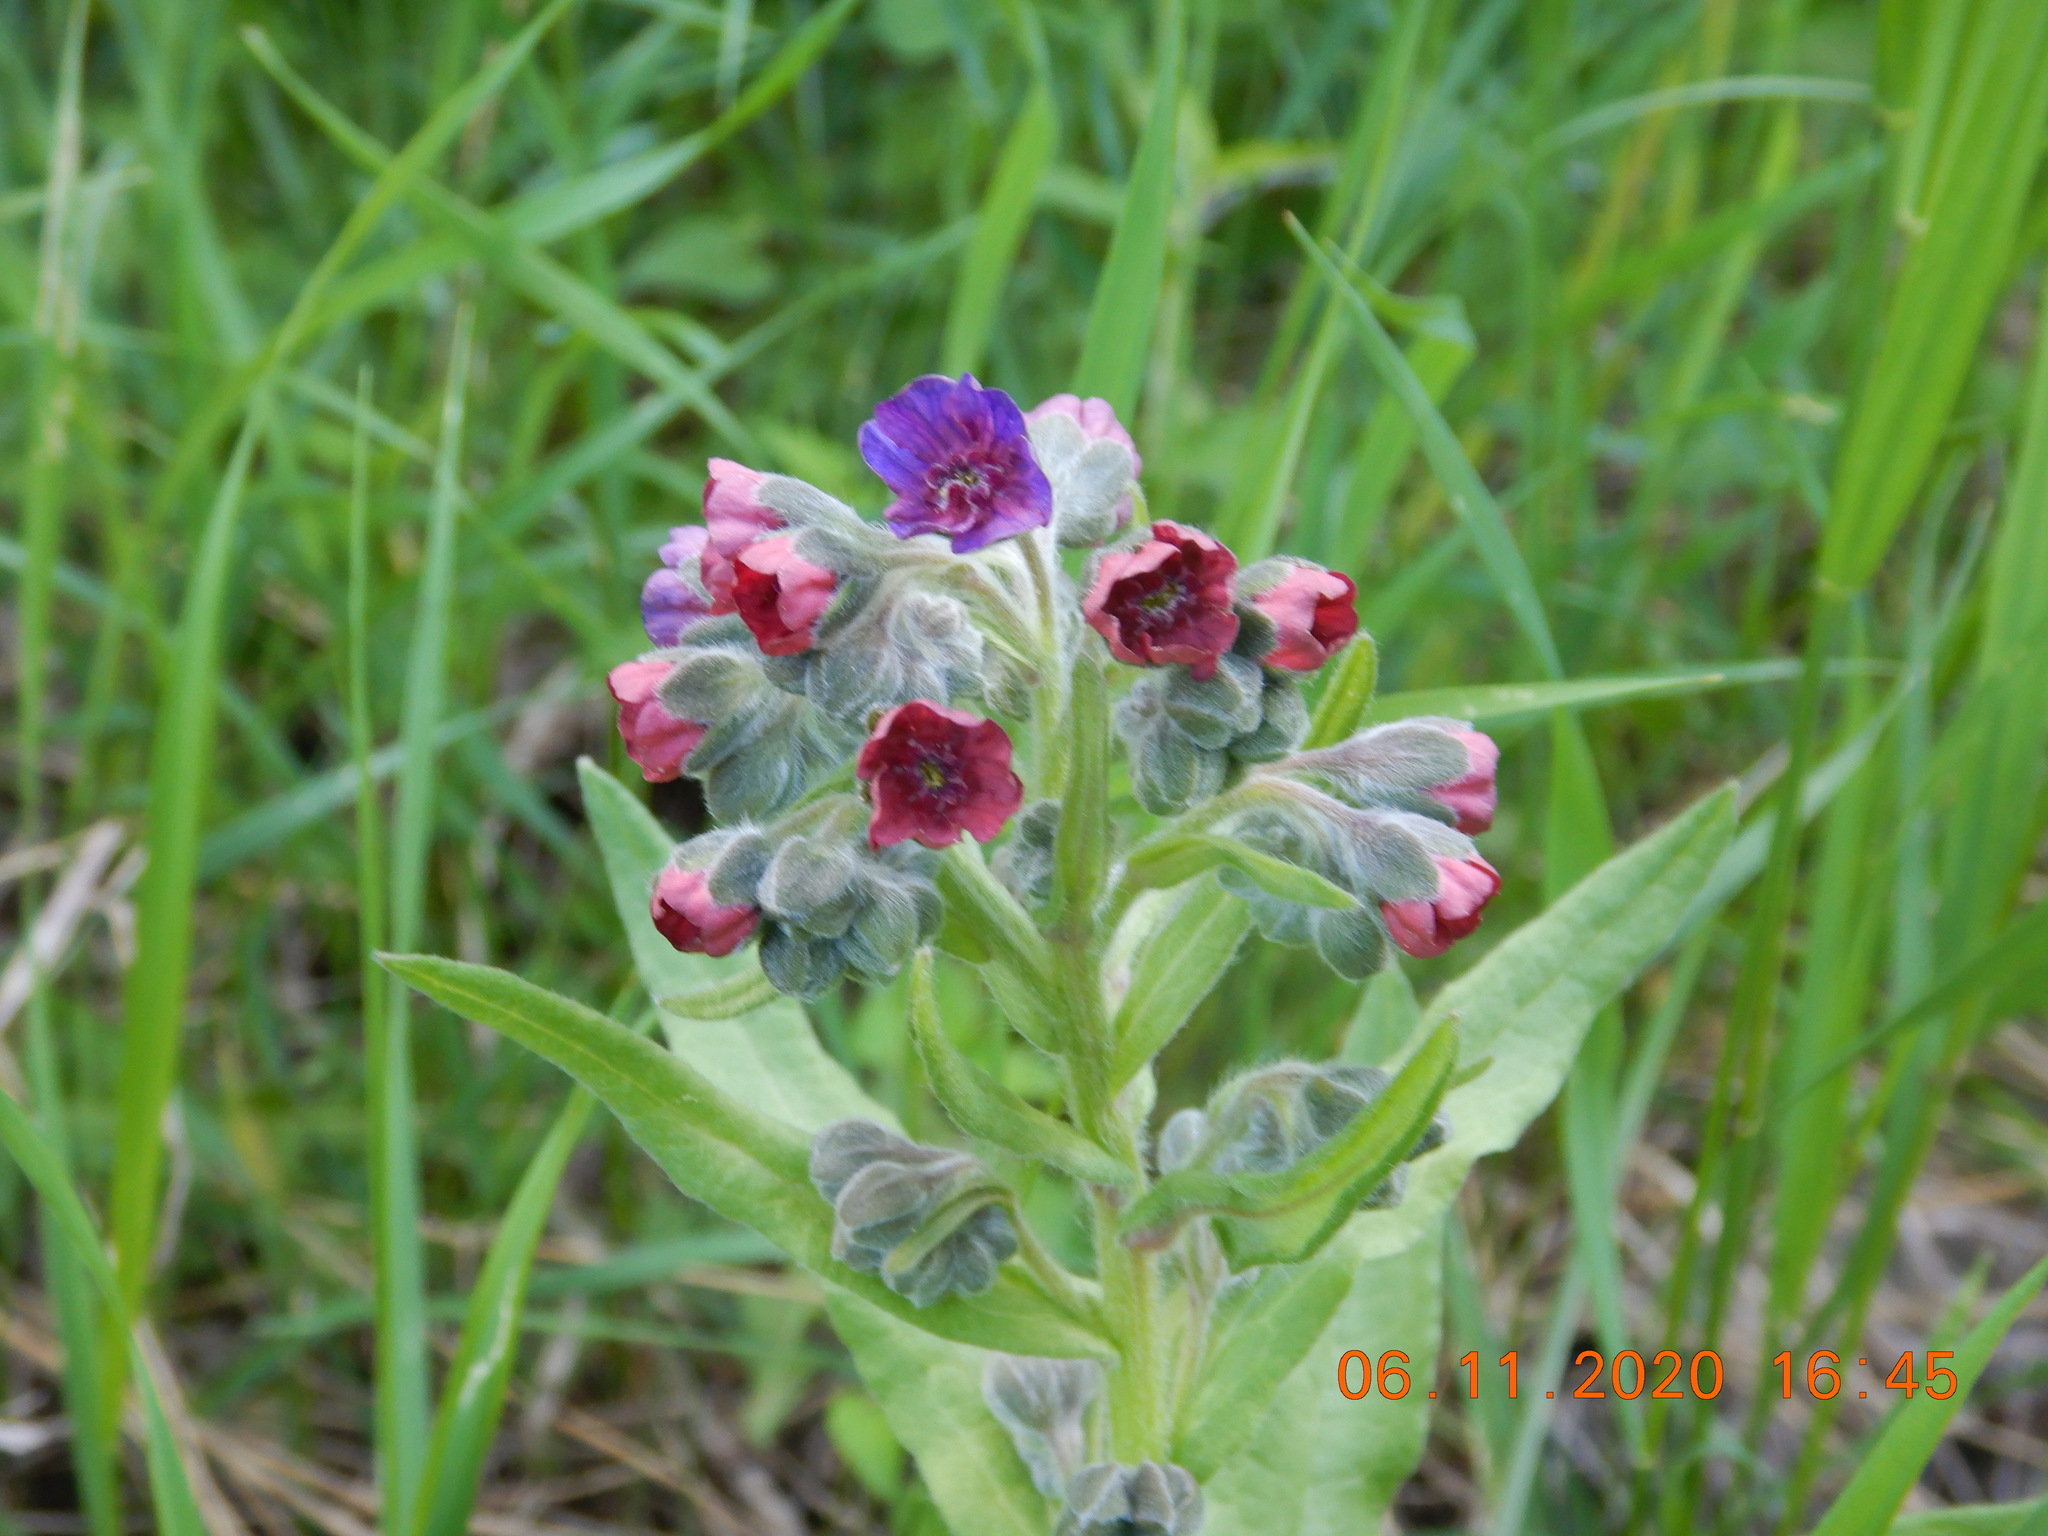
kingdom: Plantae
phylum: Tracheophyta
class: Magnoliopsida
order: Boraginales
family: Boraginaceae
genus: Cynoglossum
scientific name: Cynoglossum officinale
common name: Hound's-tongue
